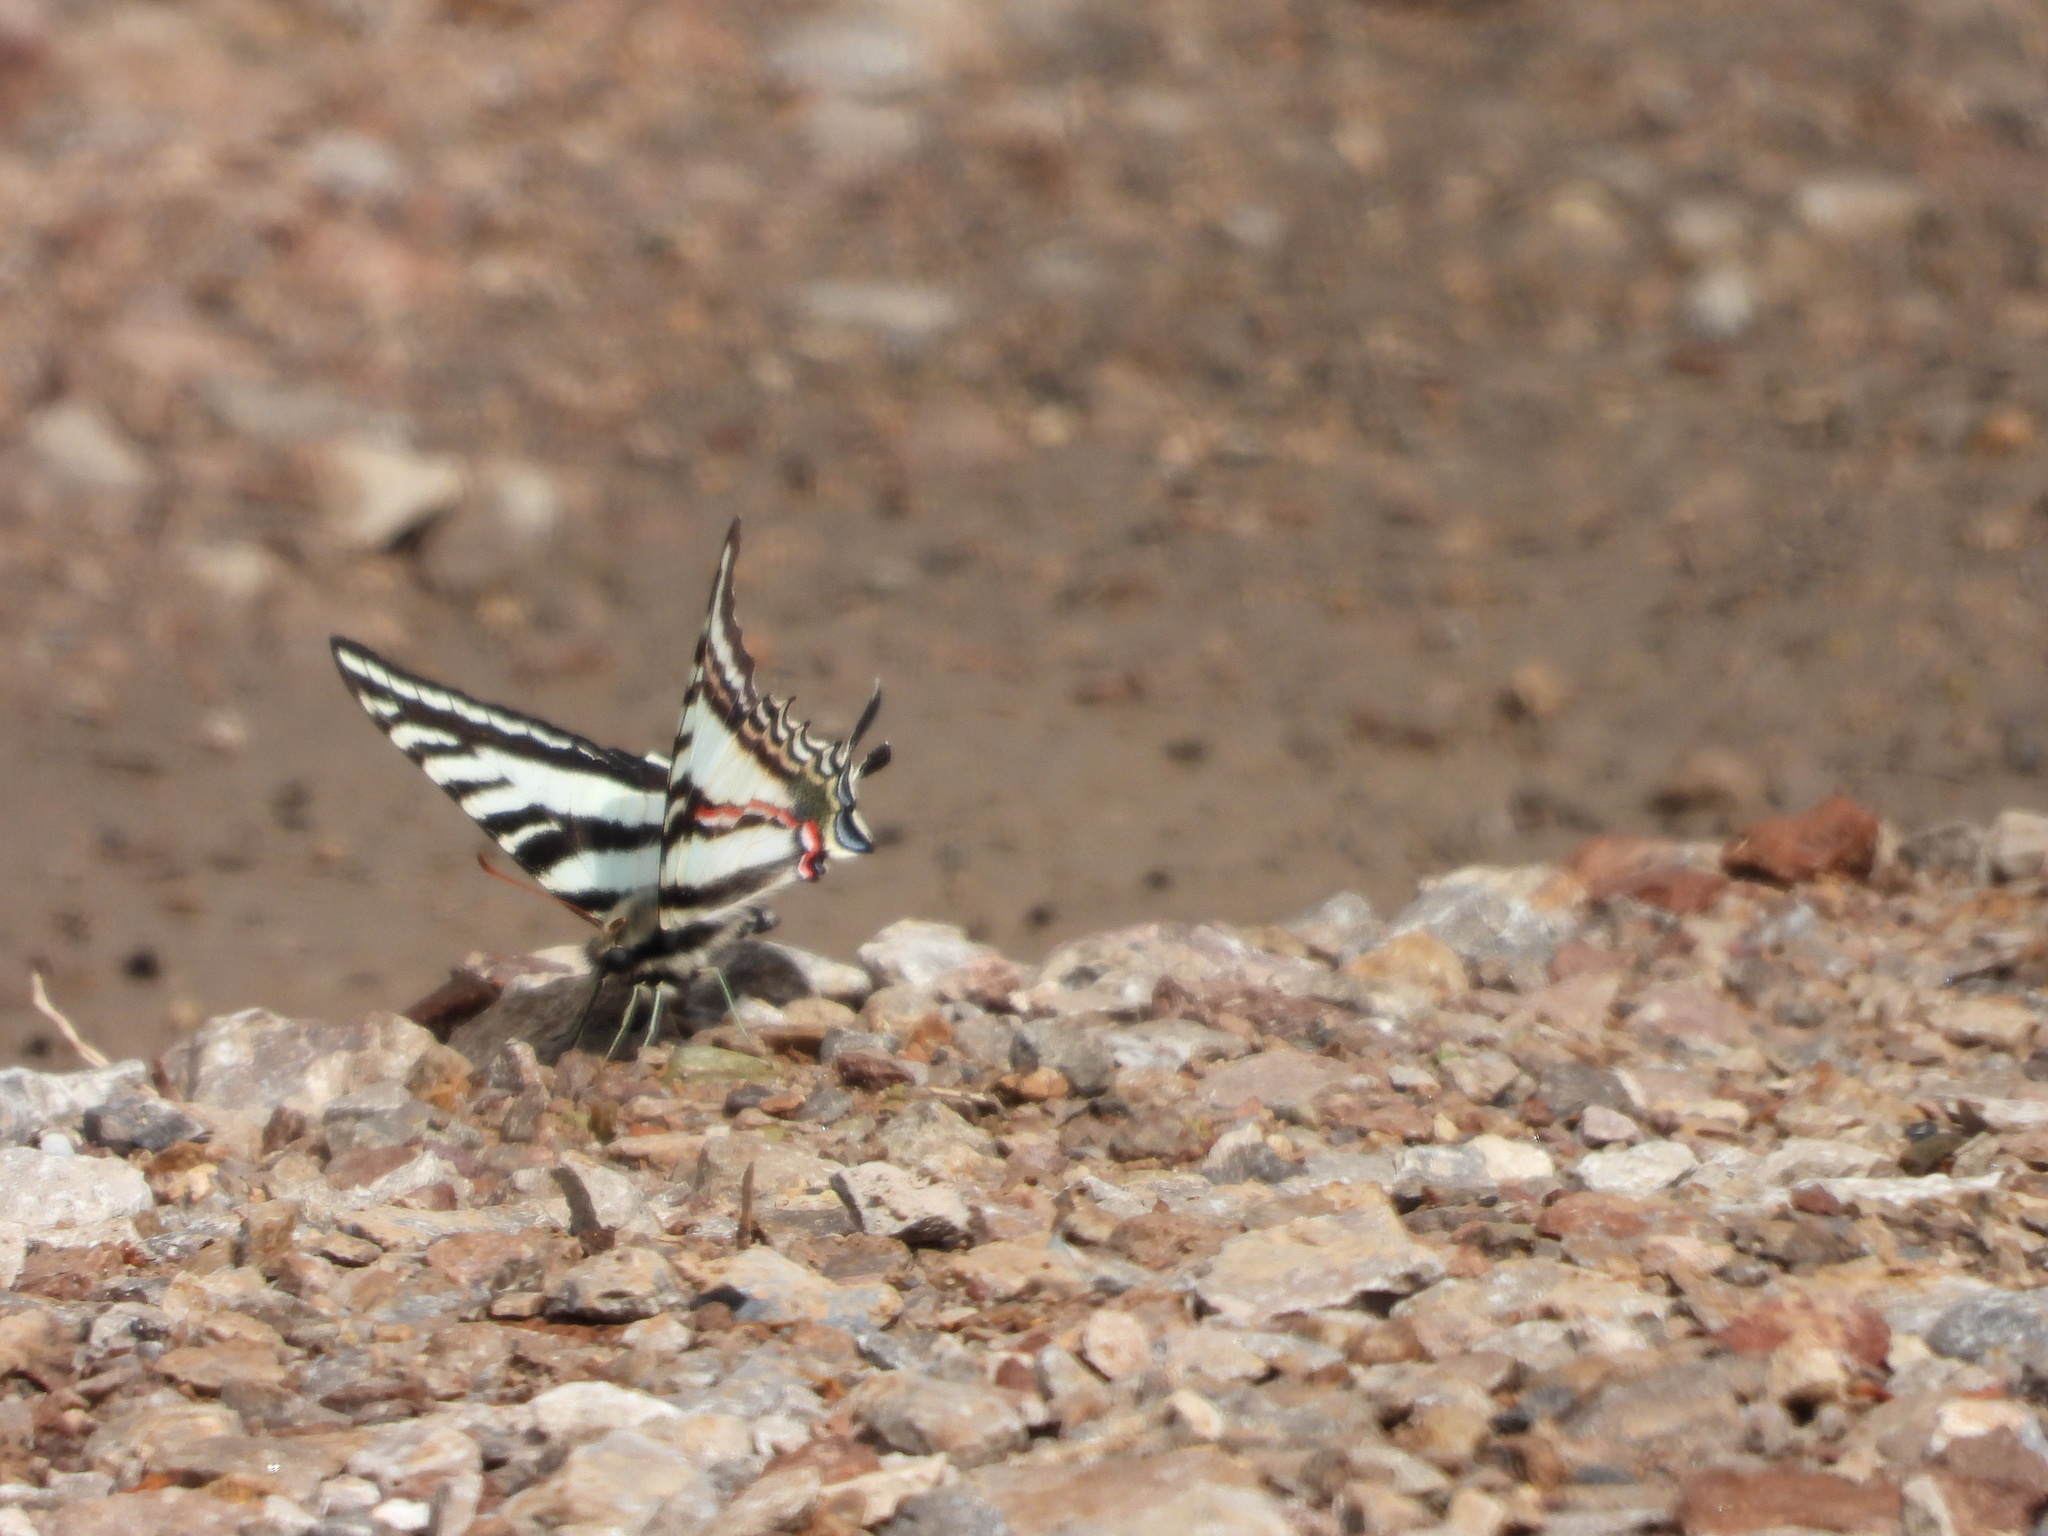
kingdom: Animalia
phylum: Arthropoda
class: Insecta
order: Lepidoptera
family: Papilionidae
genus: Protographium
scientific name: Protographium marcellus
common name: Zebra swallowtail
